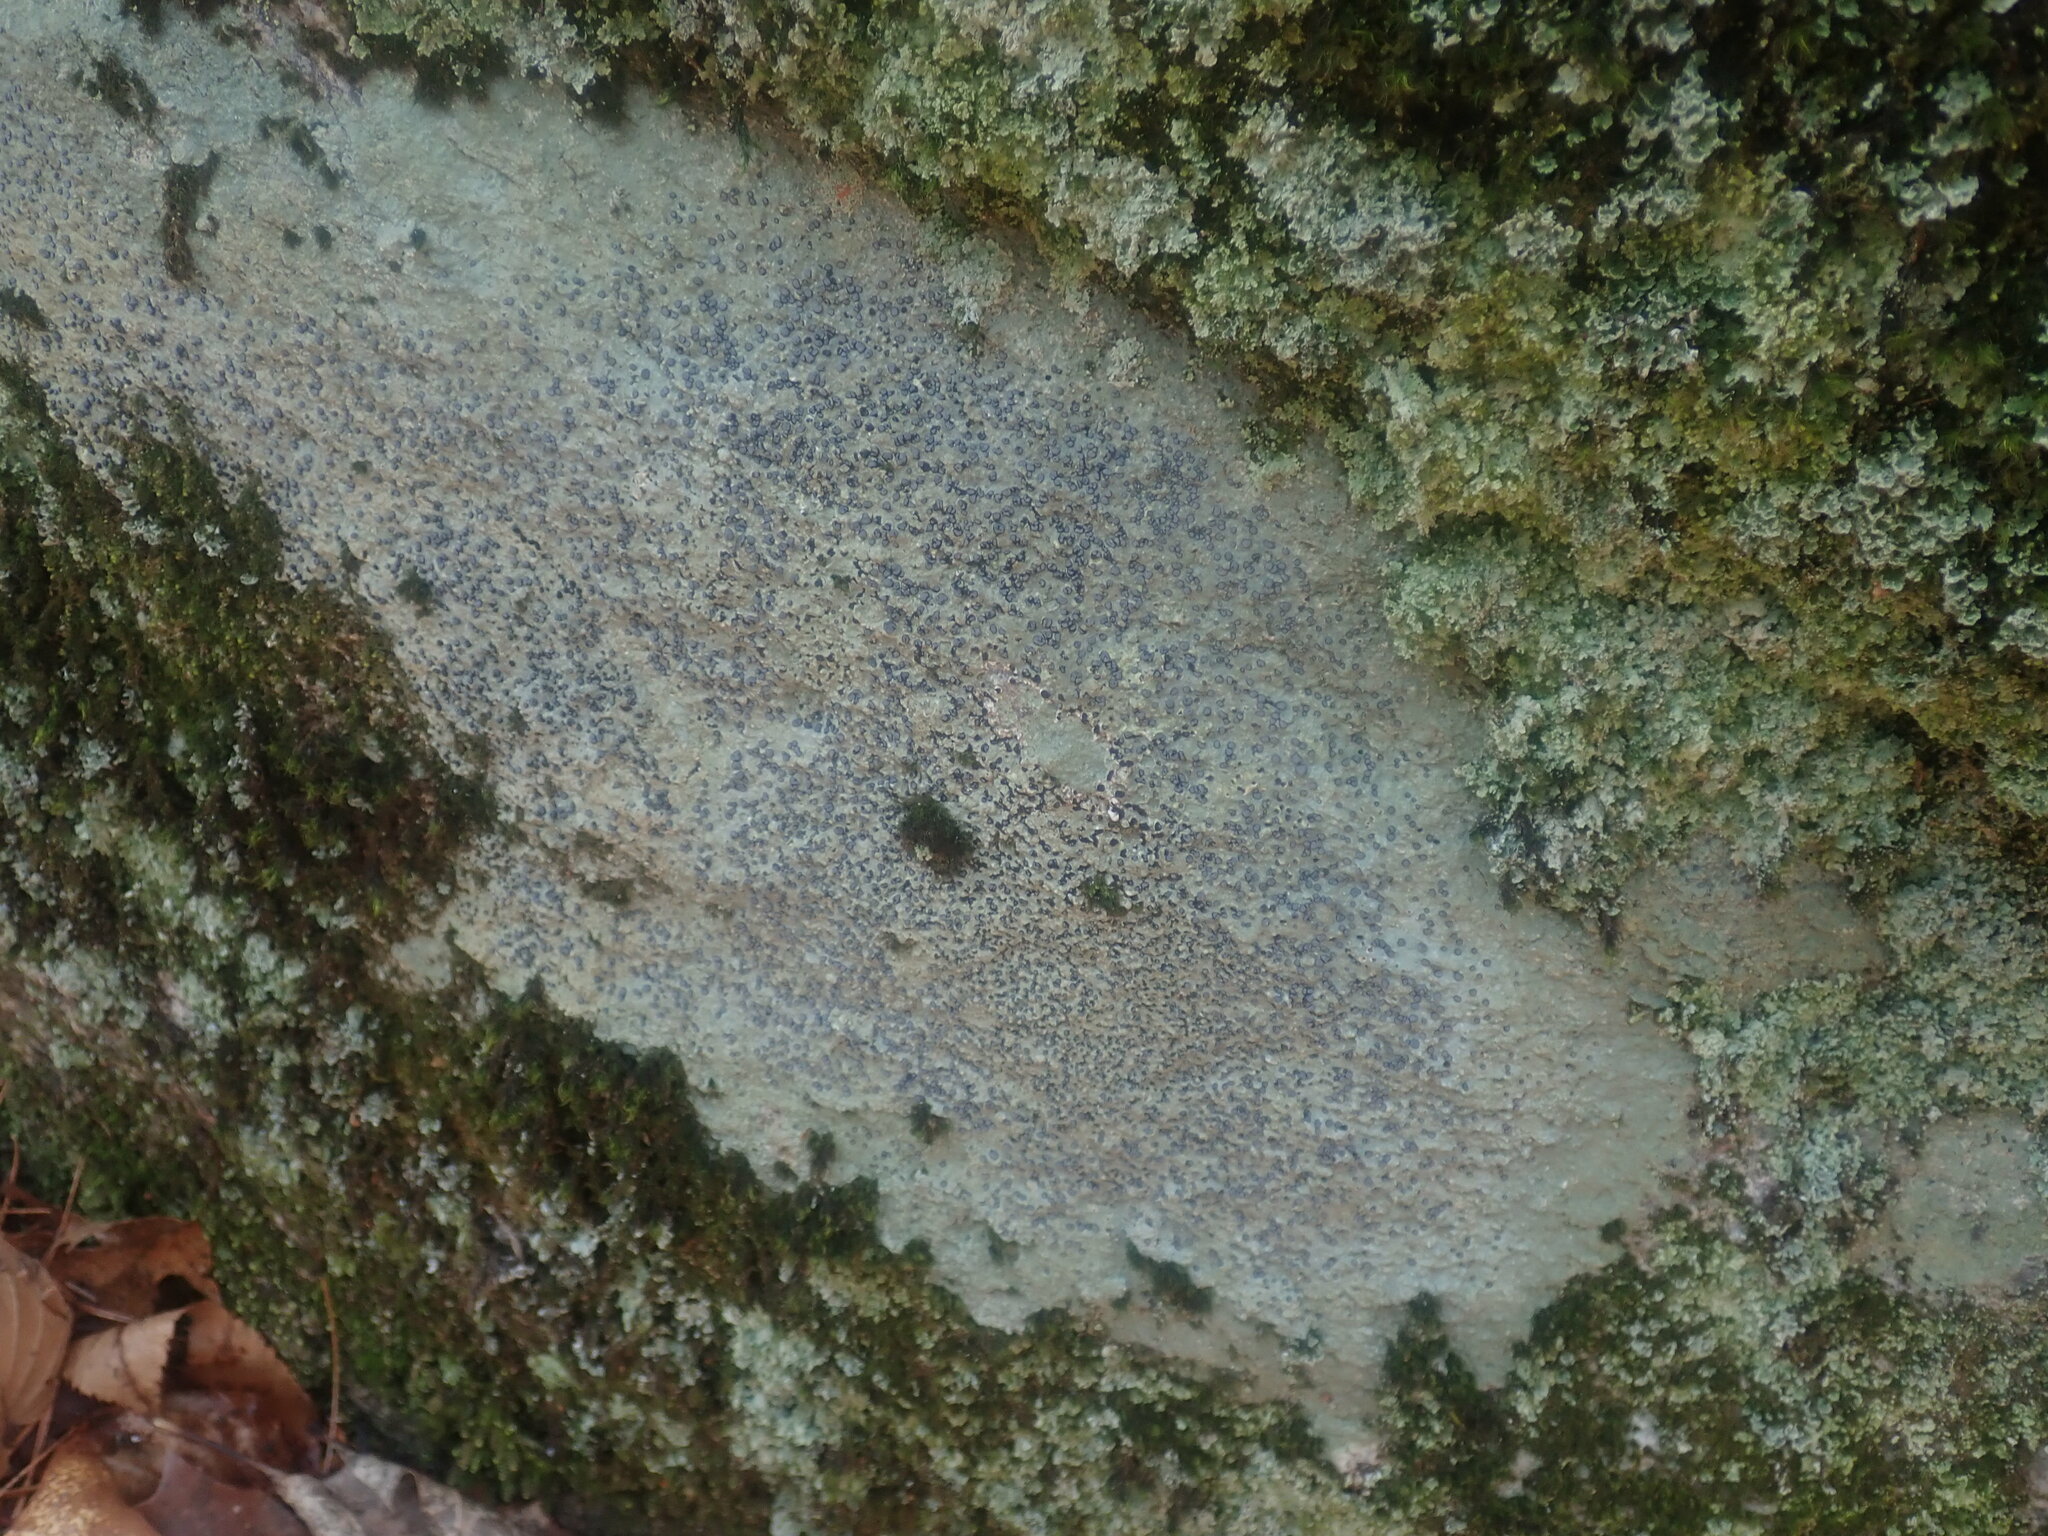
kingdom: Fungi
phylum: Ascomycota
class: Lecanoromycetes
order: Lecideales
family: Lecideaceae
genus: Porpidia
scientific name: Porpidia albocaerulescens
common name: Smokey-eyed boulder lichen
